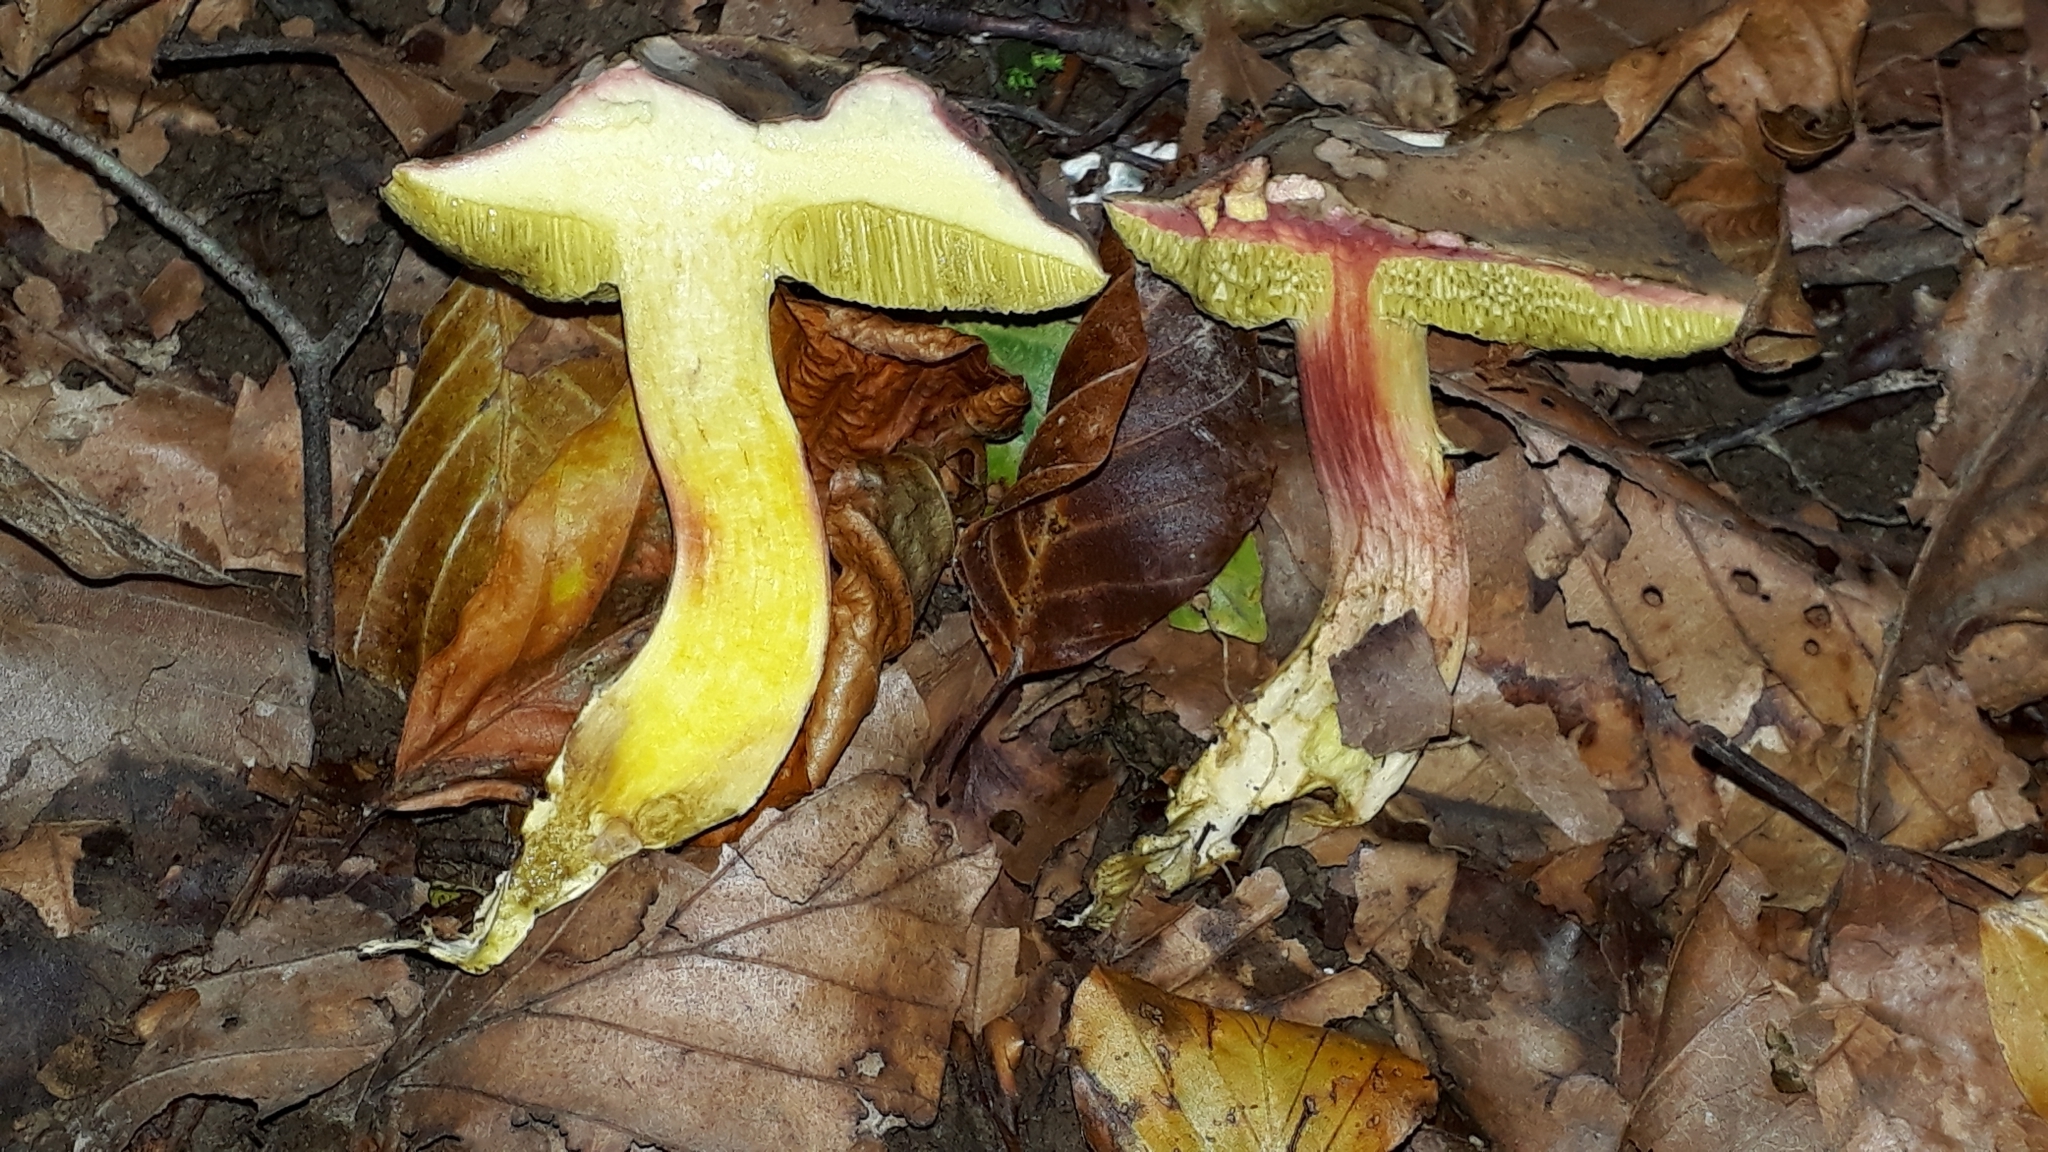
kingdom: Fungi
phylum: Basidiomycota
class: Agaricomycetes
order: Boletales
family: Boletaceae
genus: Xerocomellus
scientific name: Xerocomellus chrysenteron
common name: Red-cracking bolete
